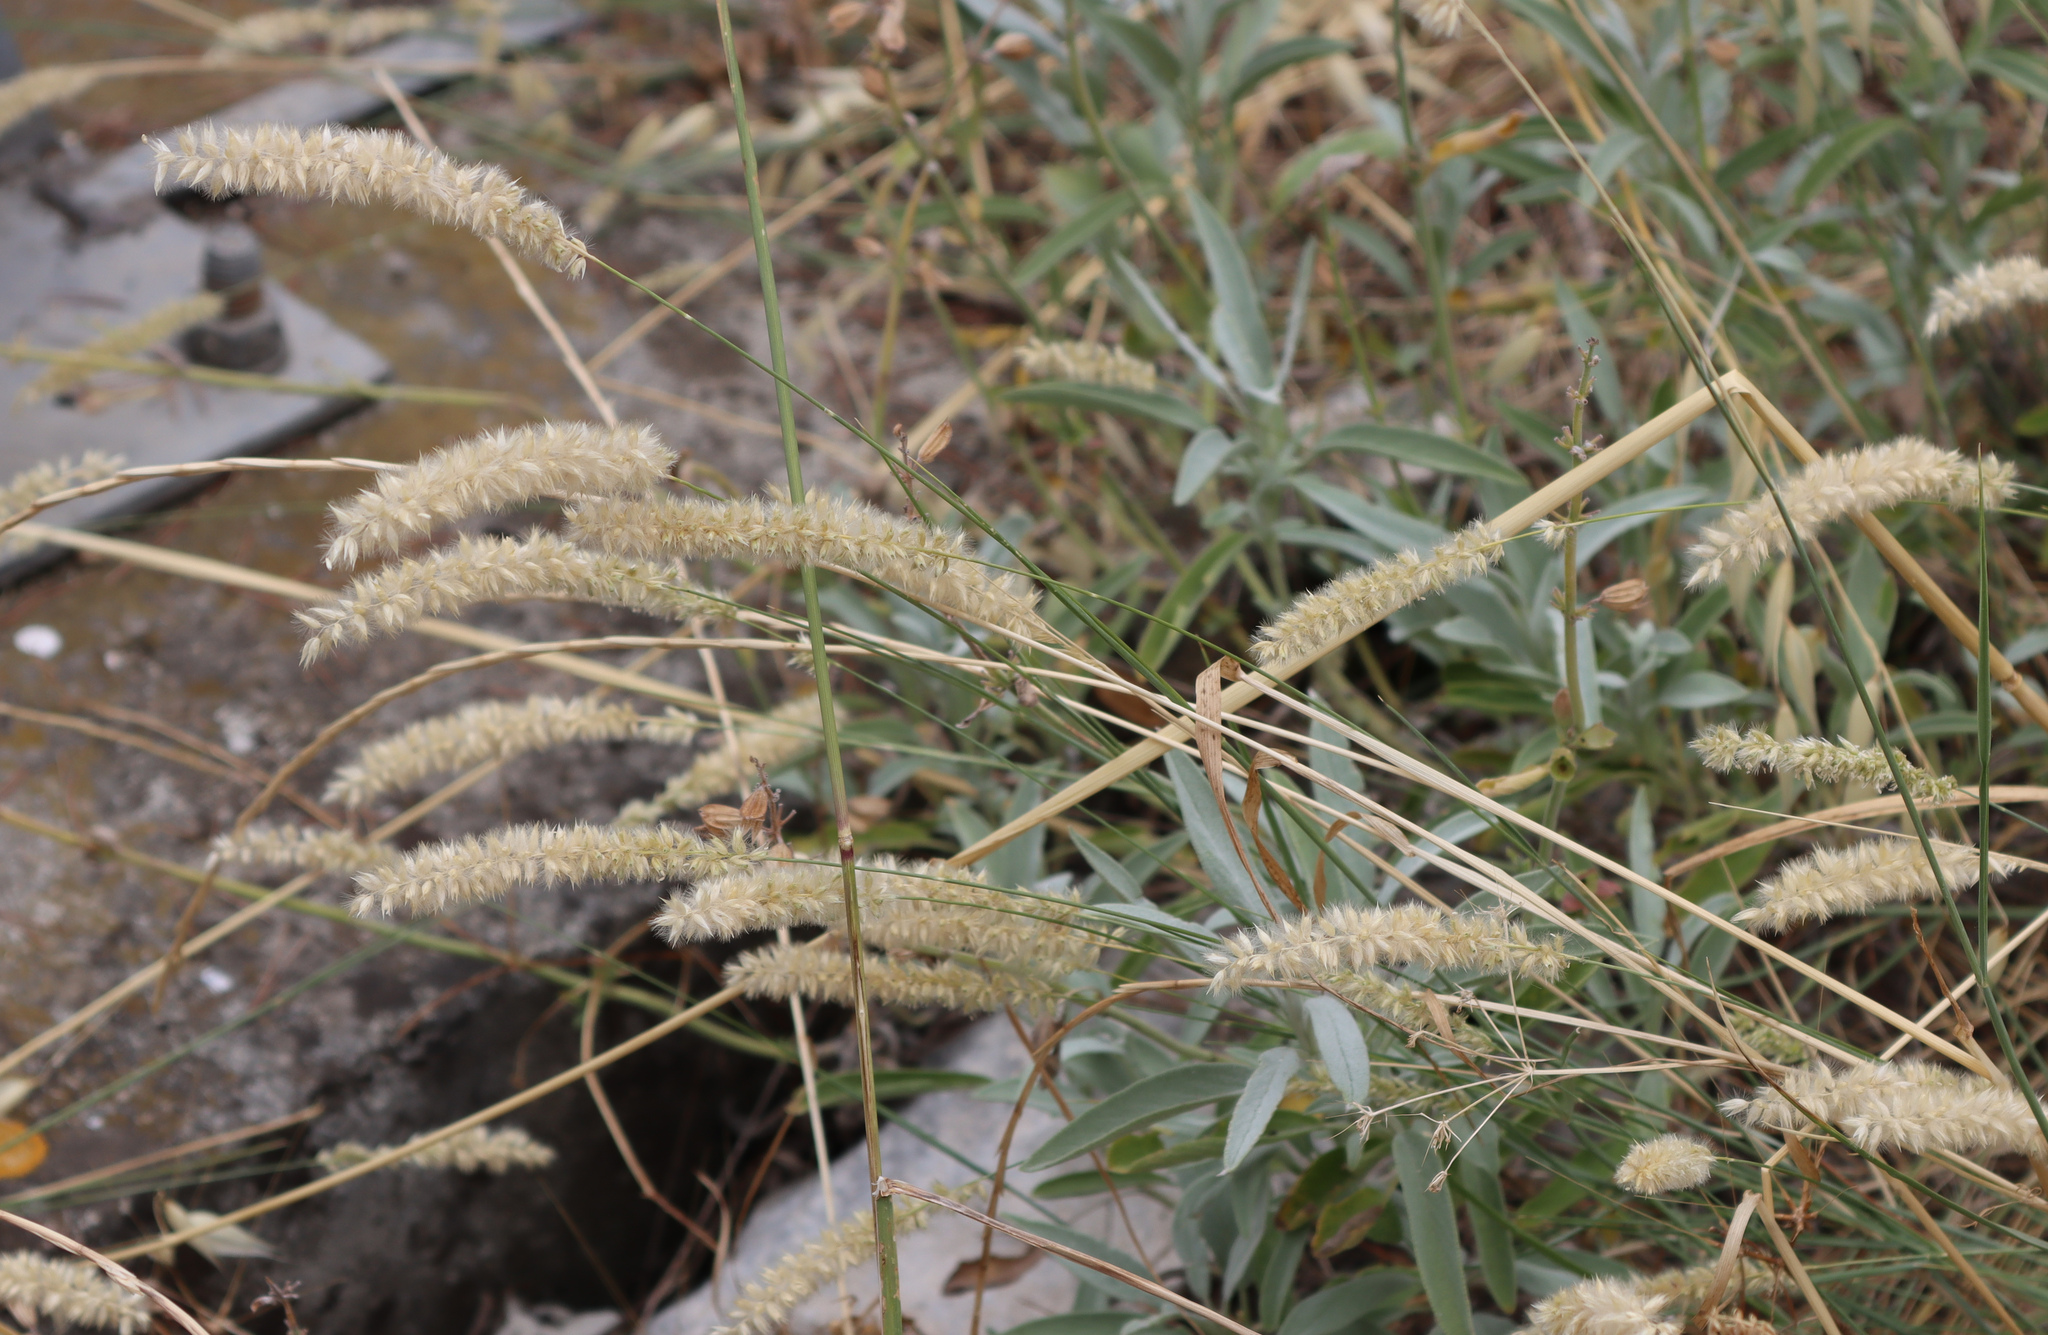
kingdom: Plantae
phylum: Tracheophyta
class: Liliopsida
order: Poales
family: Poaceae
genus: Melica
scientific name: Melica ciliata
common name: Hairy melicgrass
